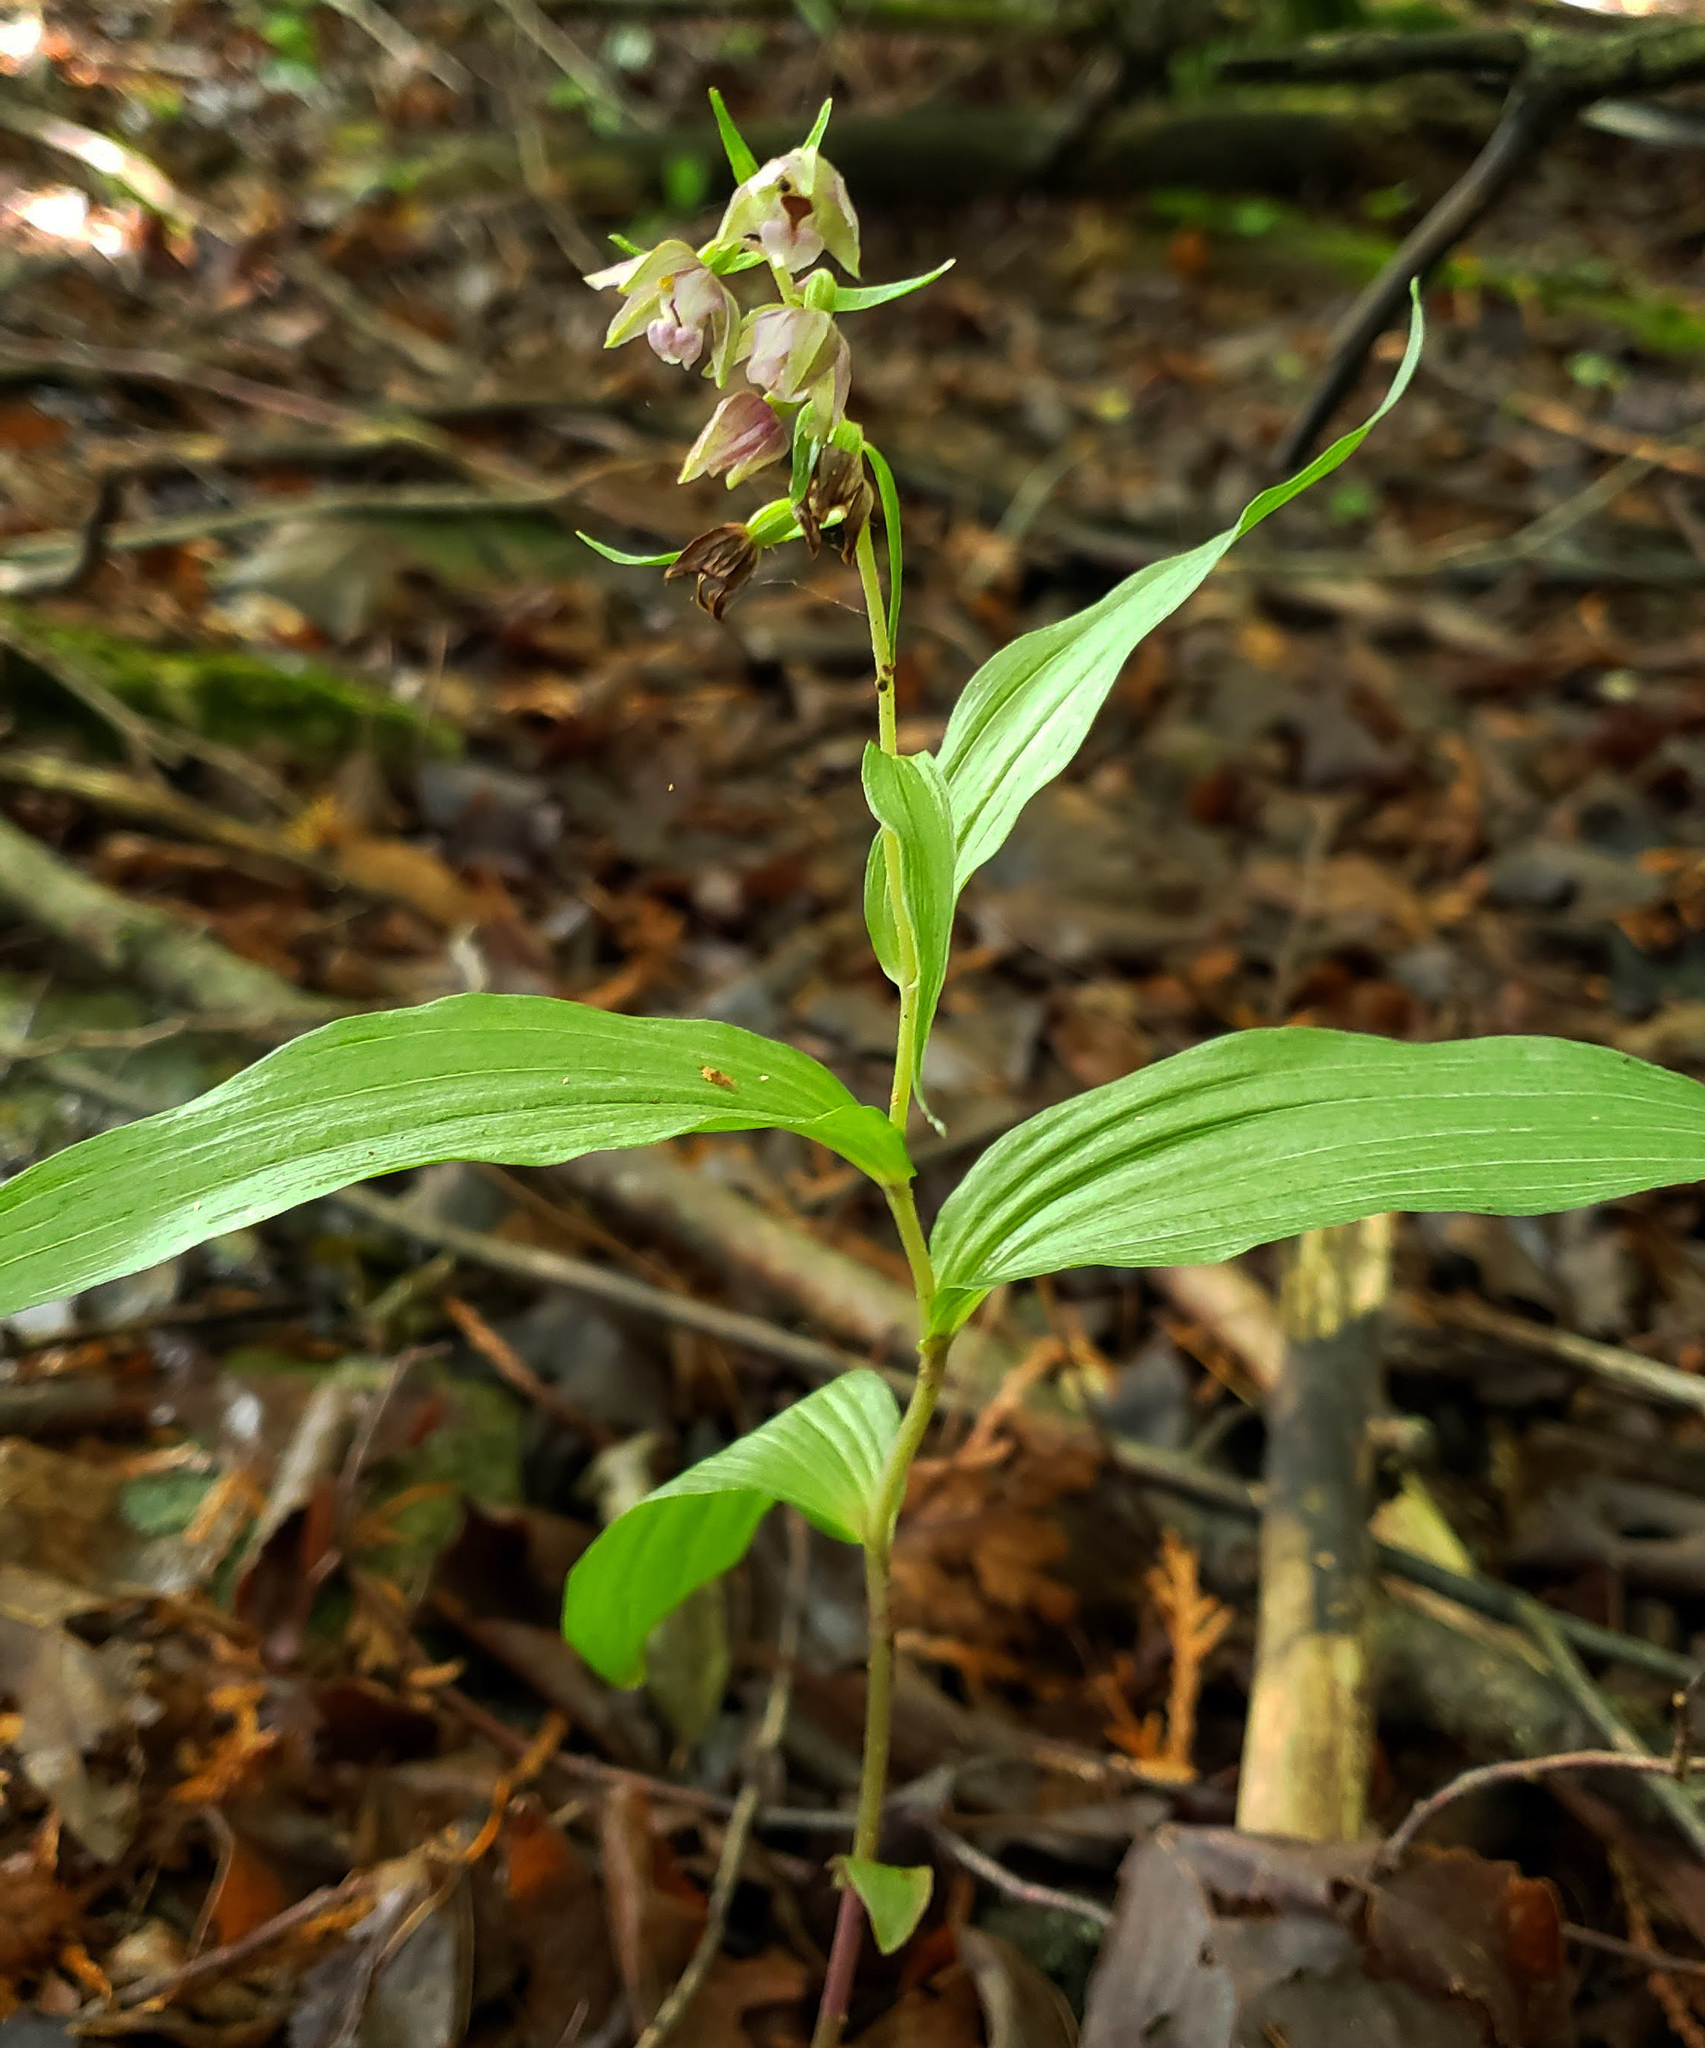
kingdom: Plantae
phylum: Tracheophyta
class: Liliopsida
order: Asparagales
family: Orchidaceae
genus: Epipactis
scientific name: Epipactis helleborine
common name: Broad-leaved helleborine
